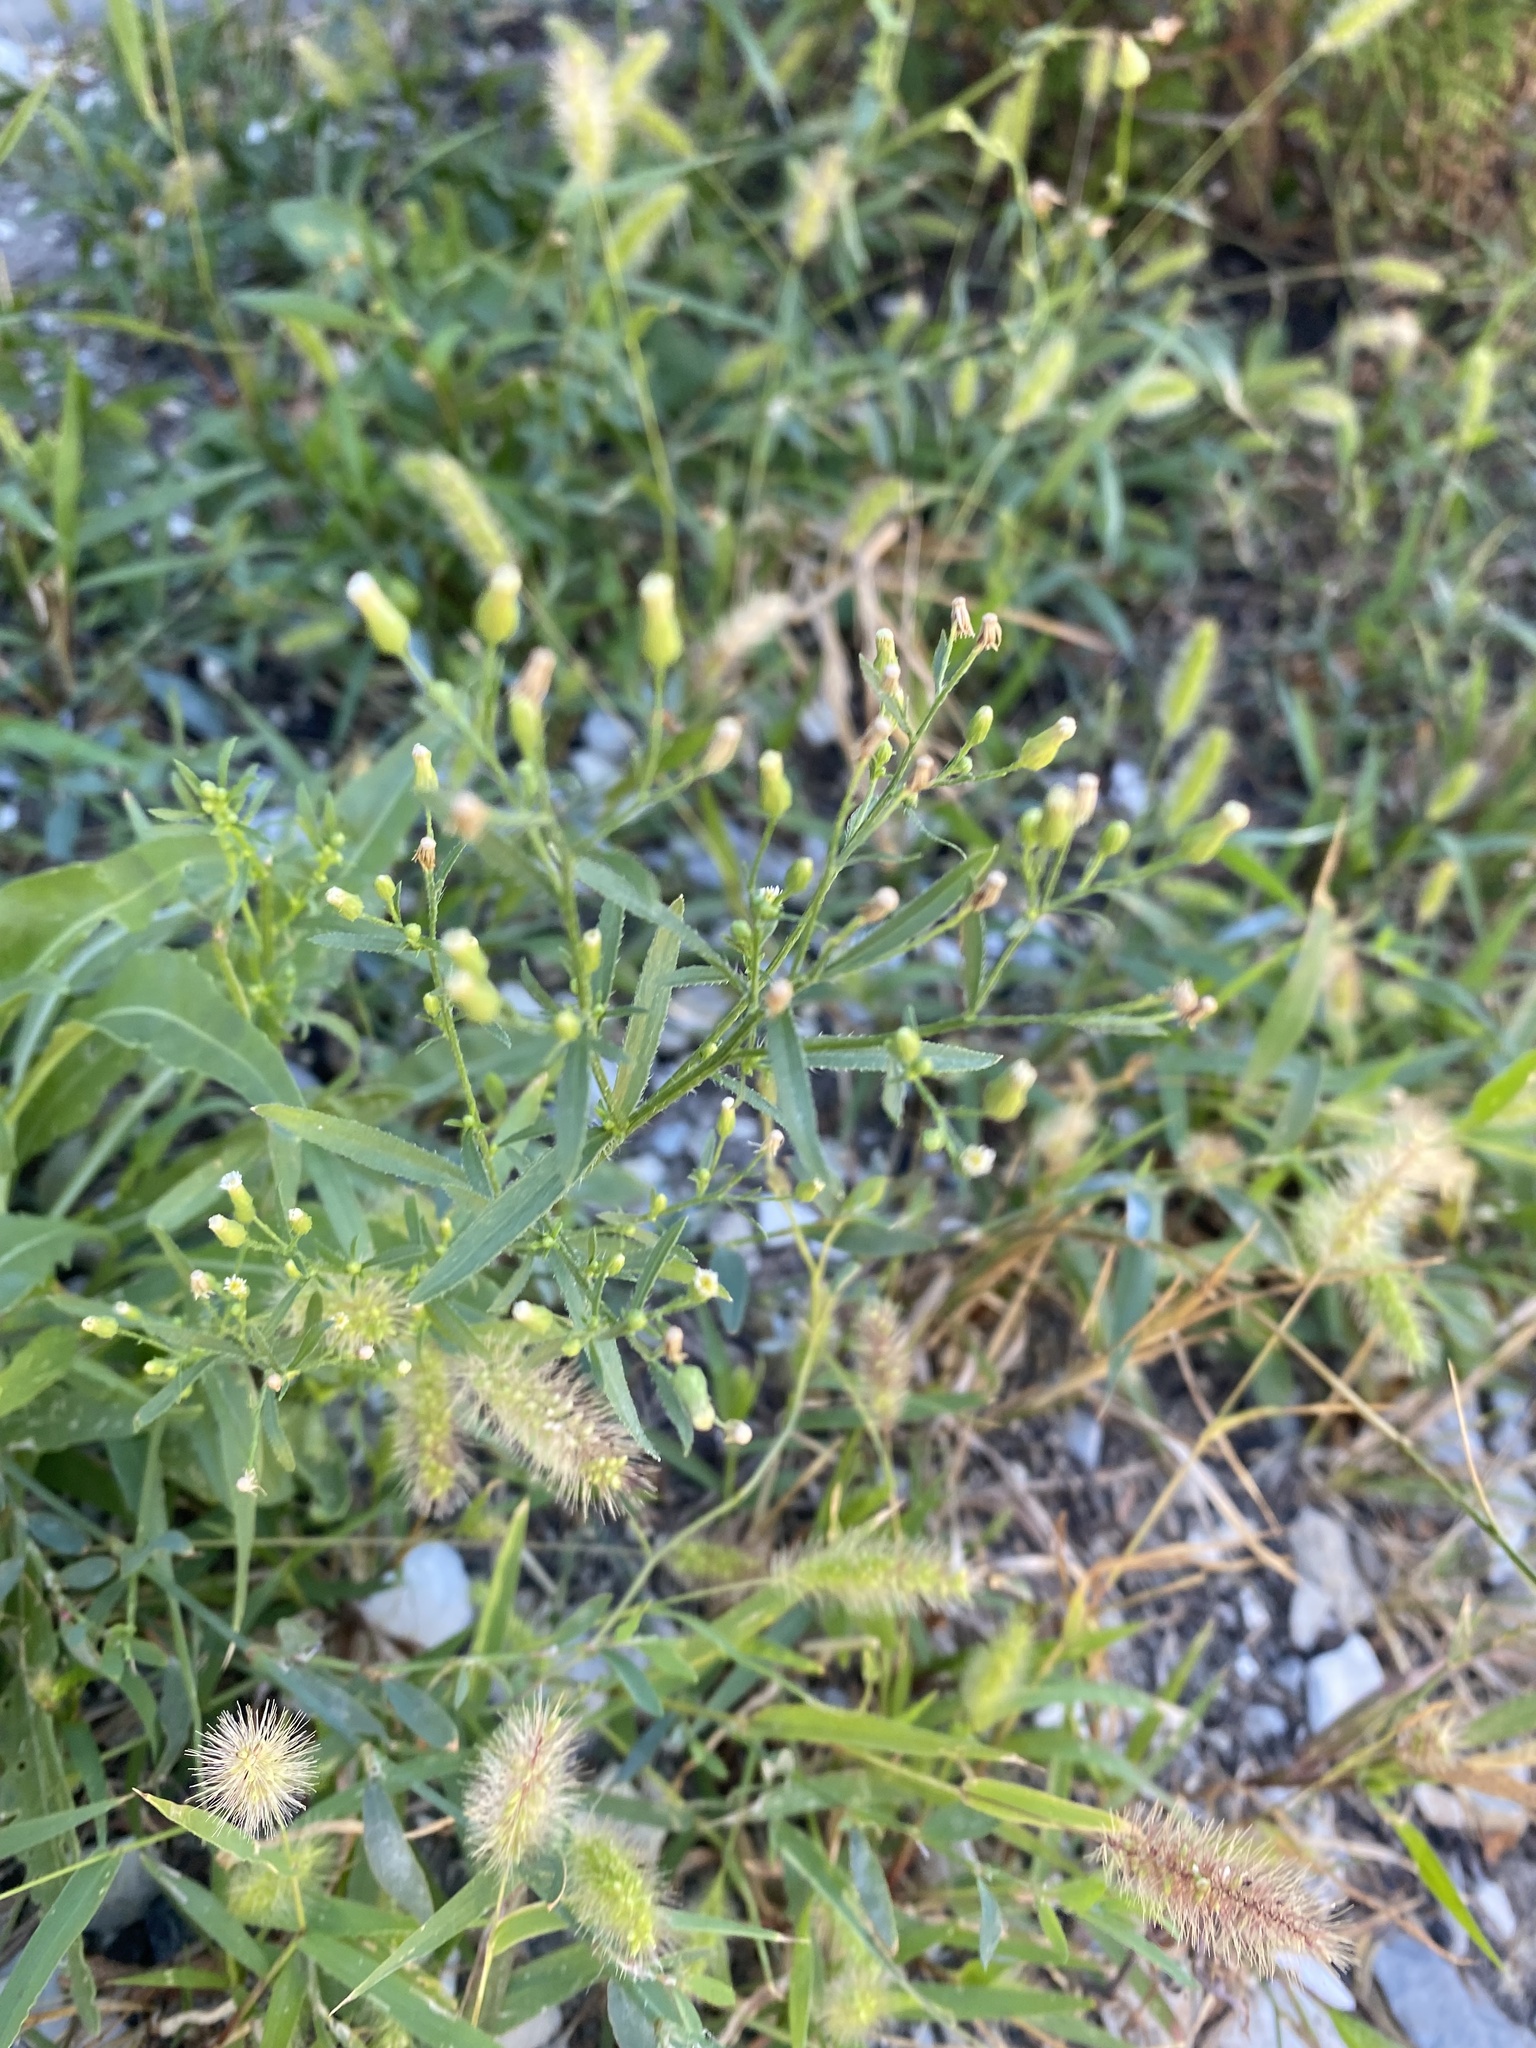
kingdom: Plantae
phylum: Tracheophyta
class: Magnoliopsida
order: Asterales
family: Asteraceae
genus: Erigeron
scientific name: Erigeron canadensis
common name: Canadian fleabane
